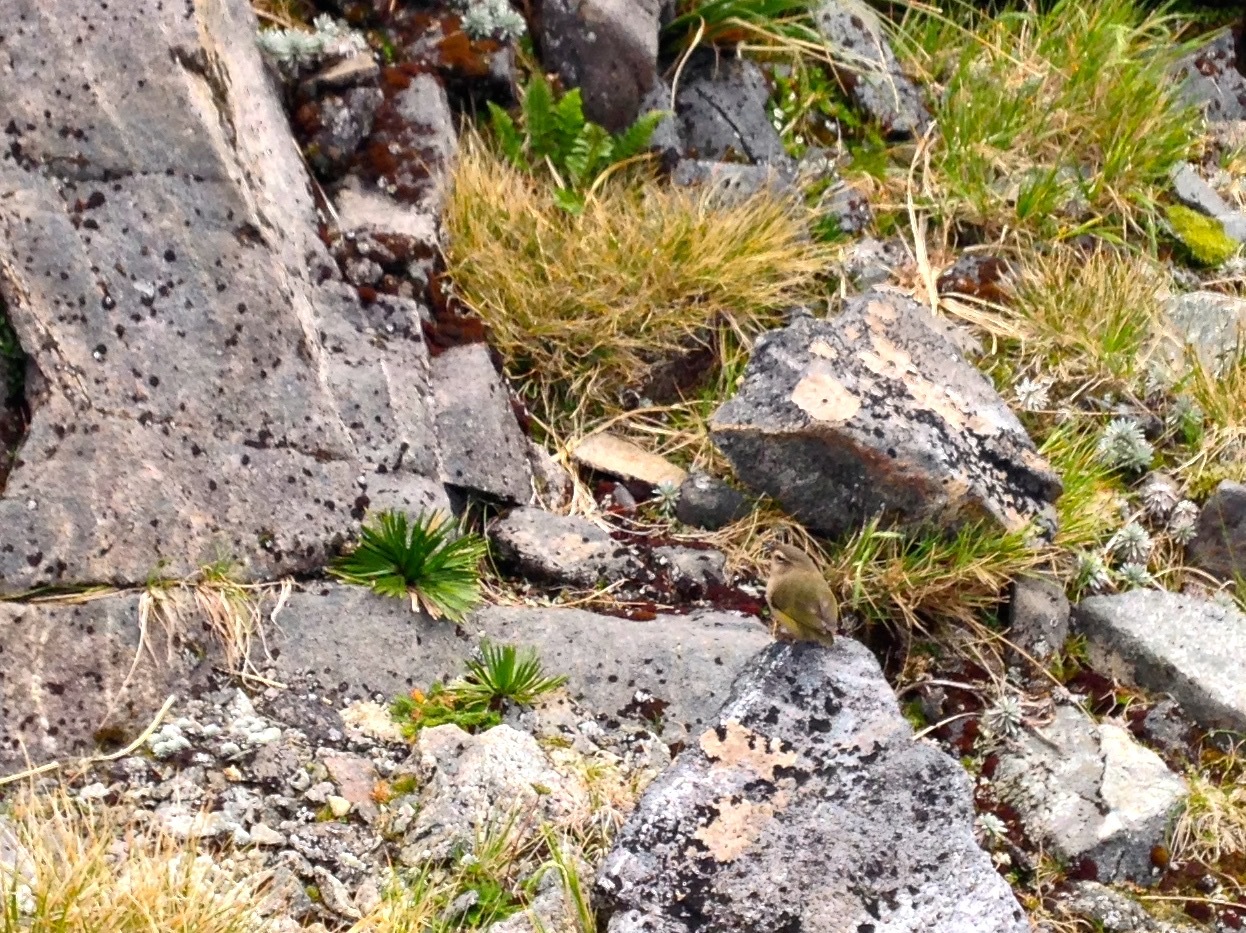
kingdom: Animalia
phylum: Chordata
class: Aves
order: Passeriformes
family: Acanthisittidae
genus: Xenicus
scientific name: Xenicus gilviventris
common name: New zealand rockwren
